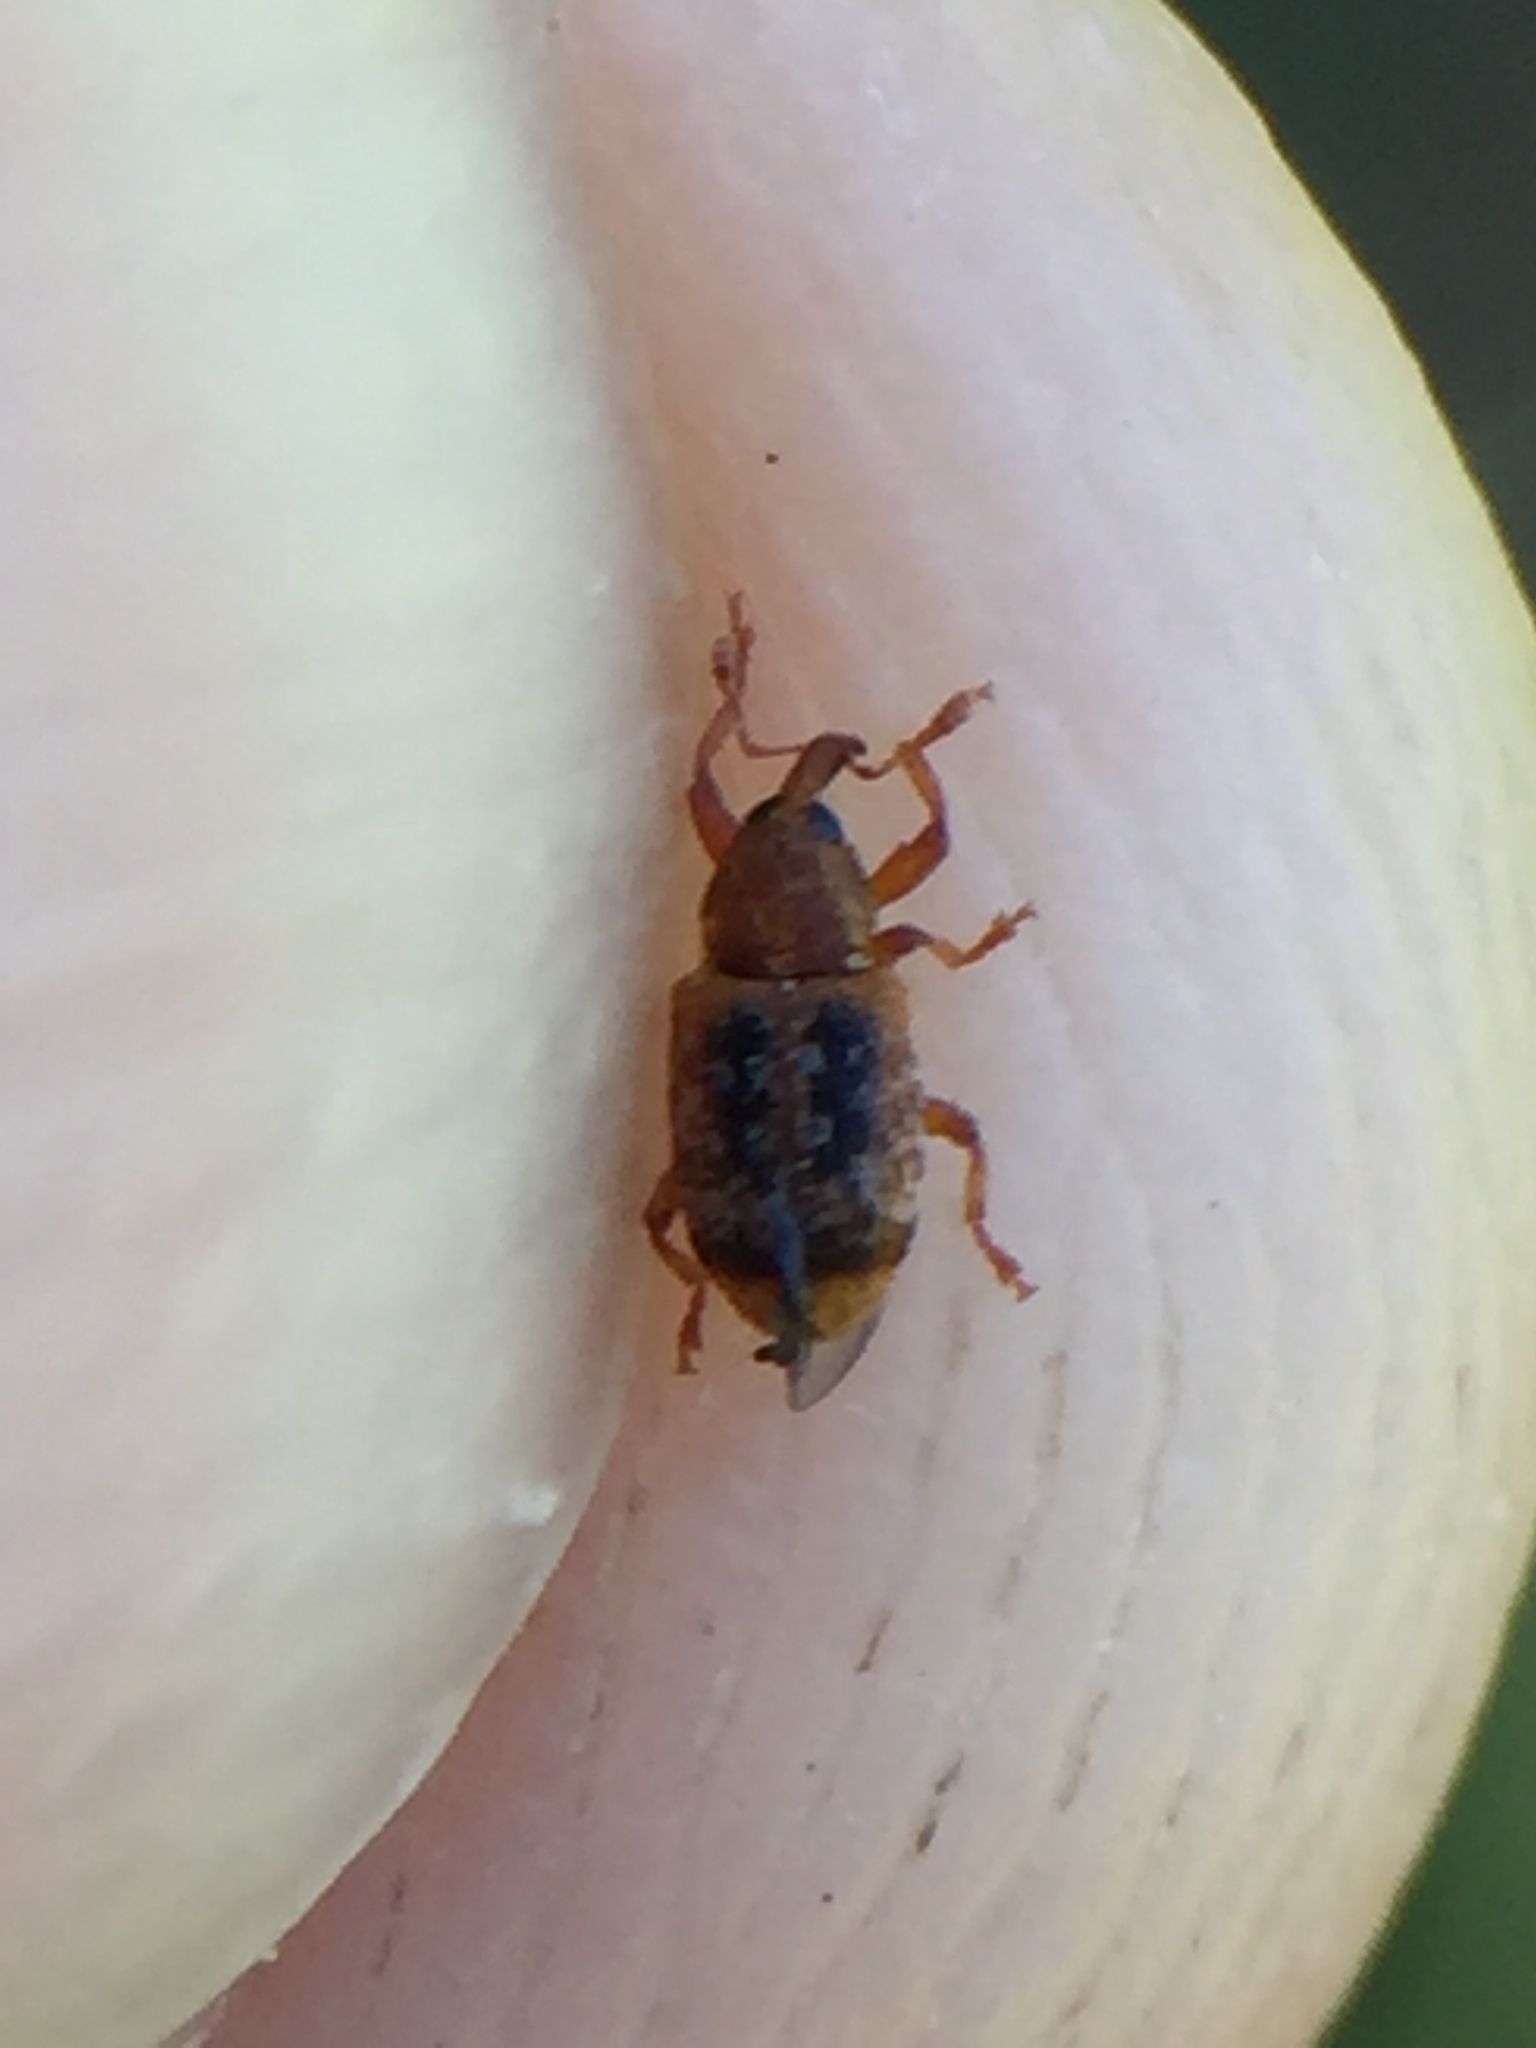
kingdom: Animalia
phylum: Arthropoda
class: Insecta
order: Coleoptera
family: Curculionidae
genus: Peristoreus
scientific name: Peristoreus flavitarsis
